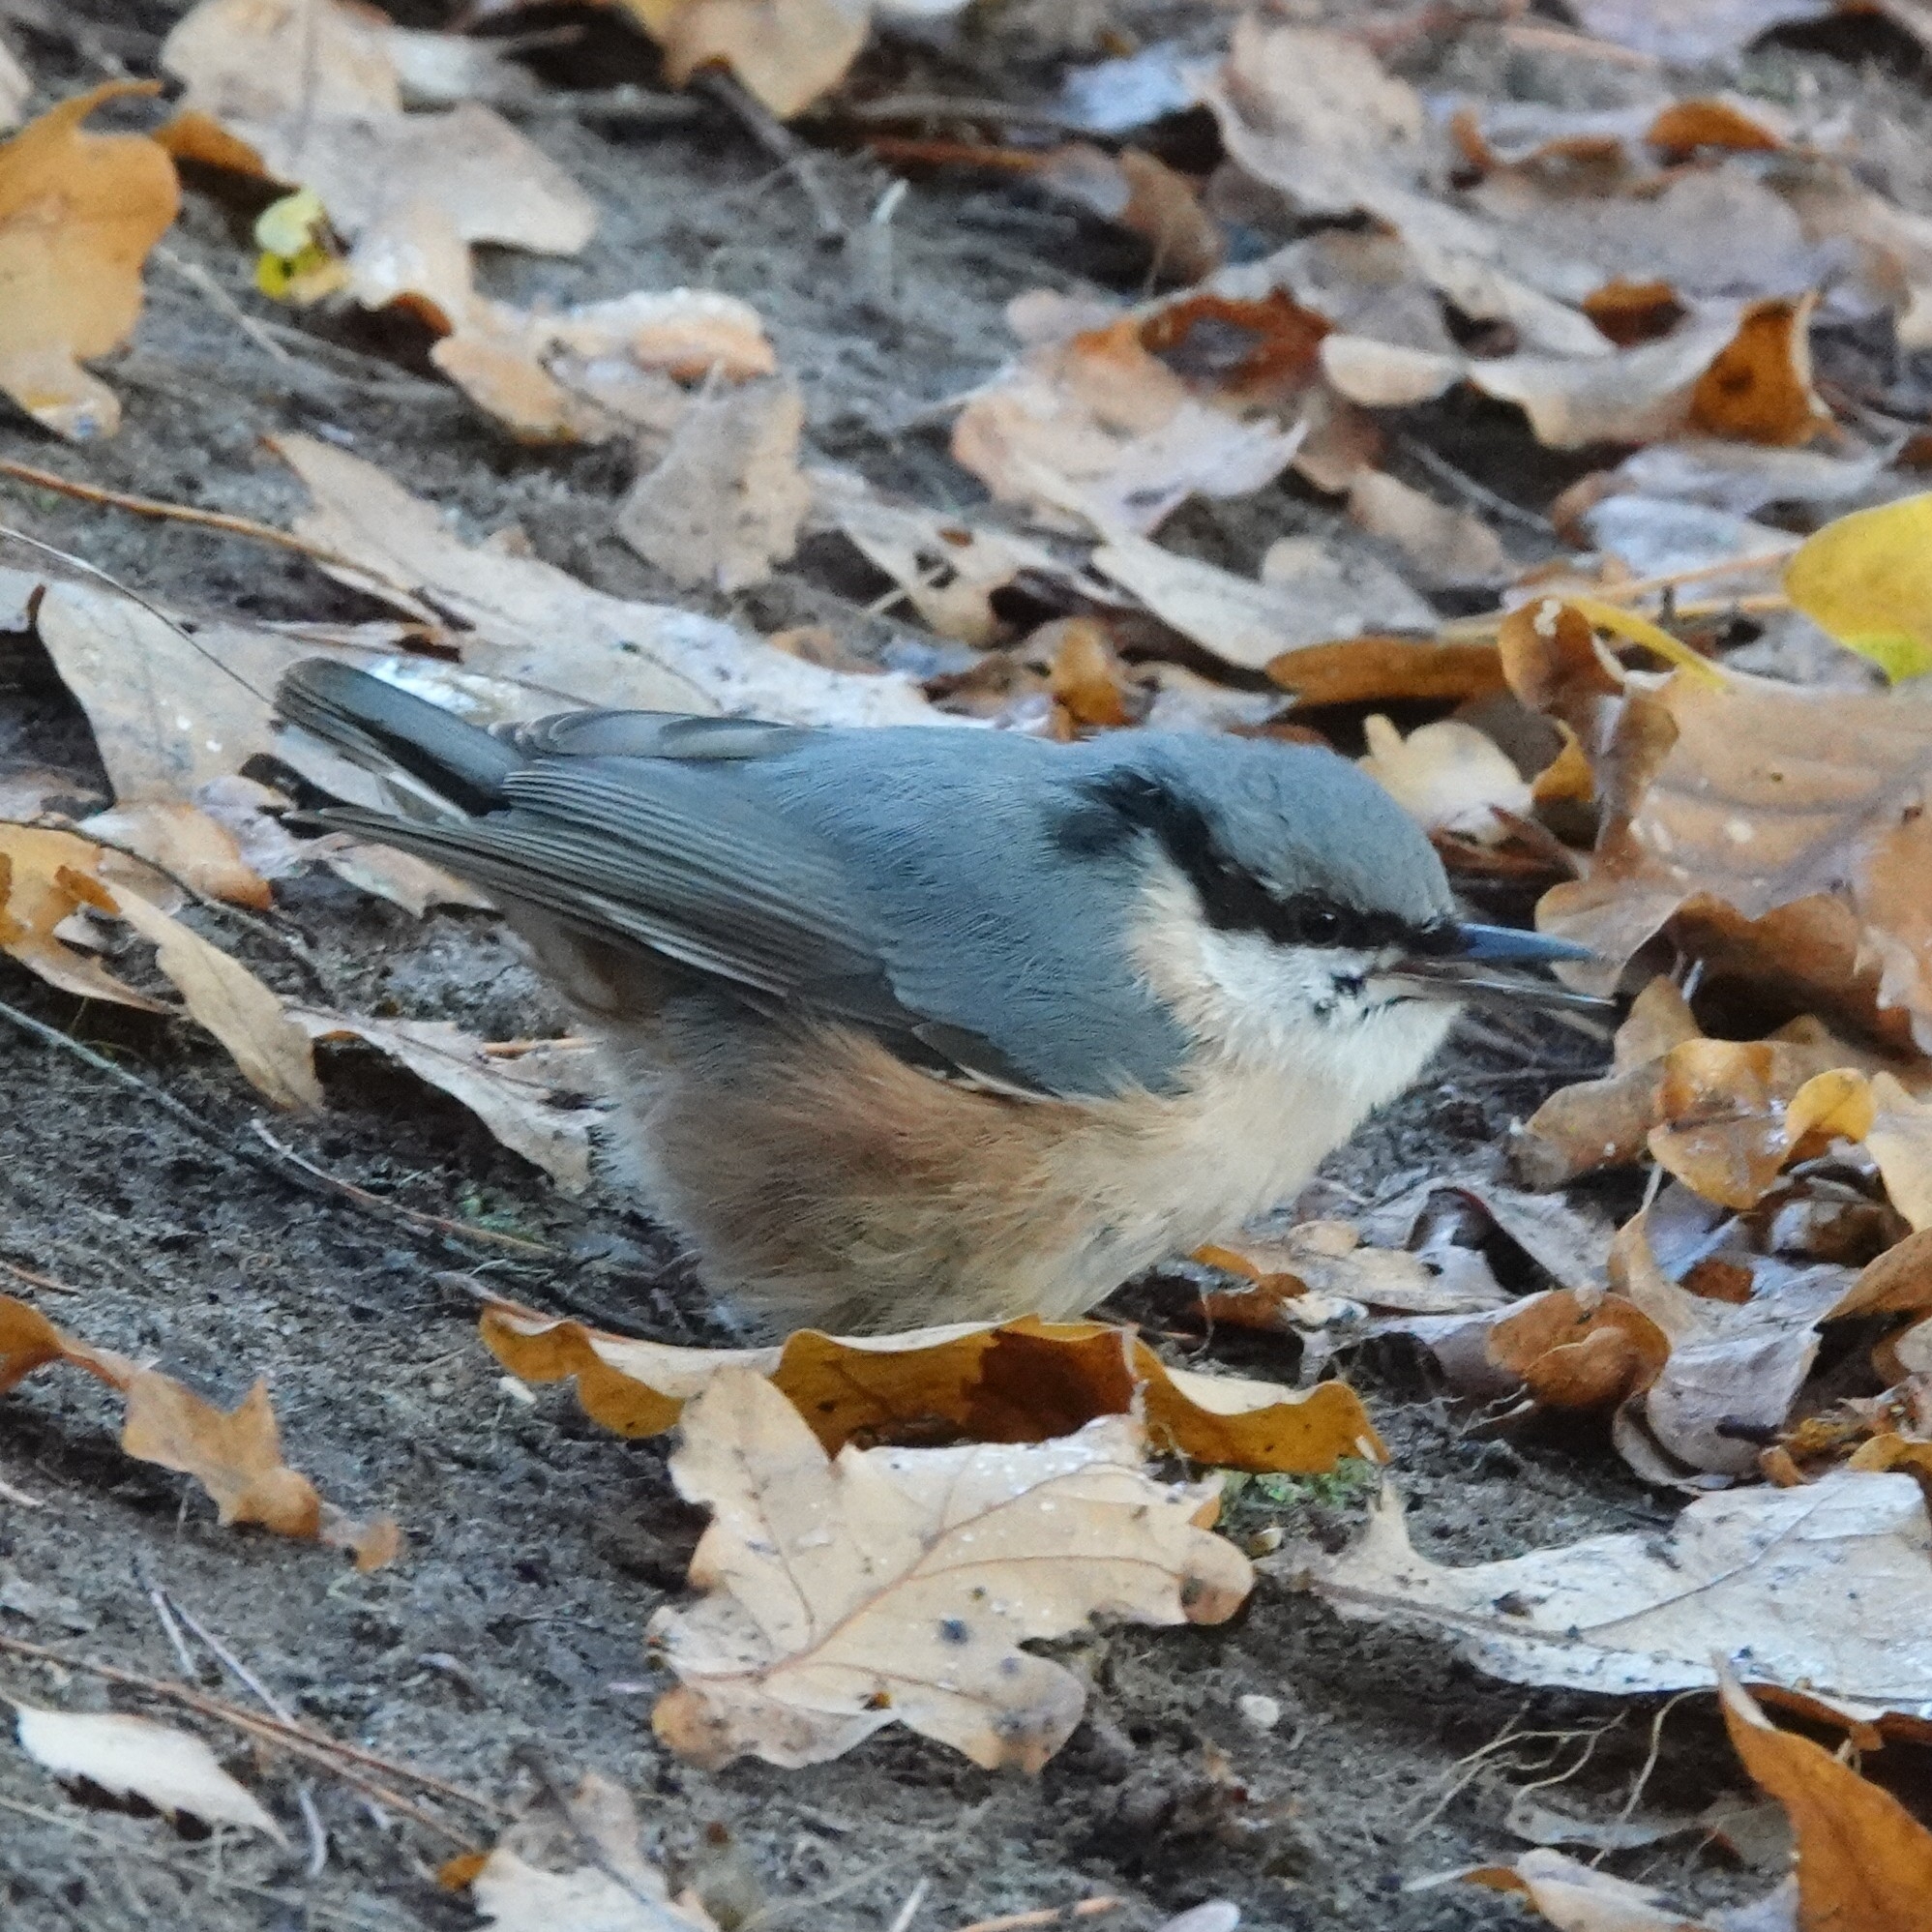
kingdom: Animalia
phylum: Chordata
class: Aves
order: Passeriformes
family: Sittidae
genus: Sitta
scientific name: Sitta europaea
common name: Eurasian nuthatch
